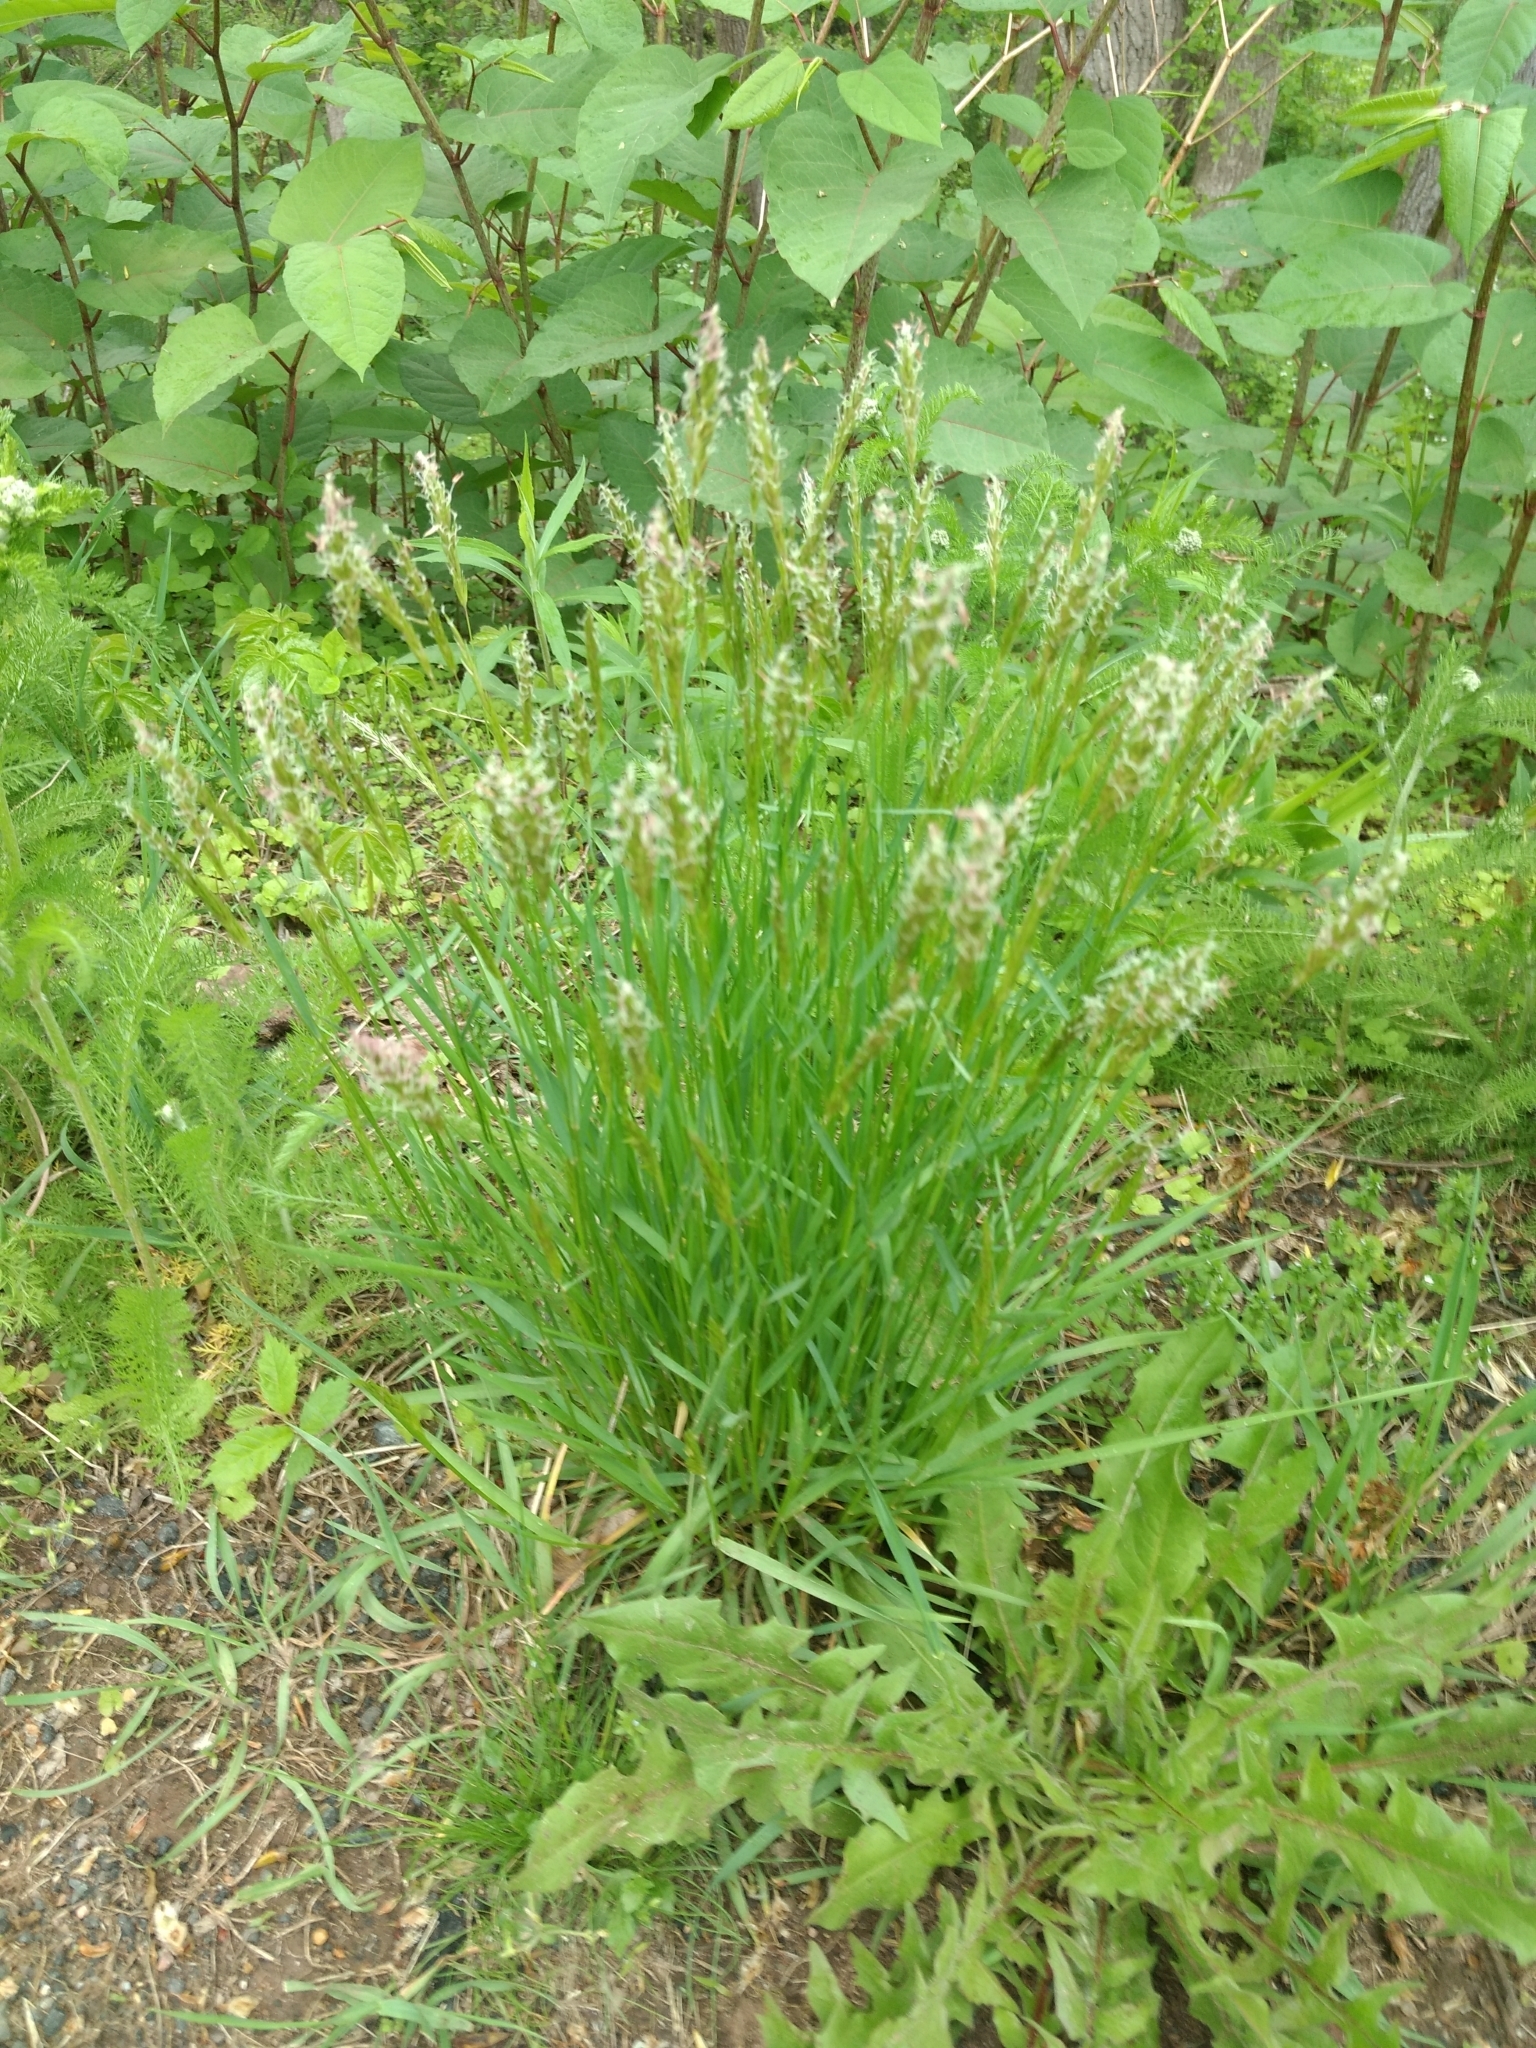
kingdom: Plantae
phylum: Tracheophyta
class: Liliopsida
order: Poales
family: Poaceae
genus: Anthoxanthum
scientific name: Anthoxanthum odoratum
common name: Sweet vernalgrass
